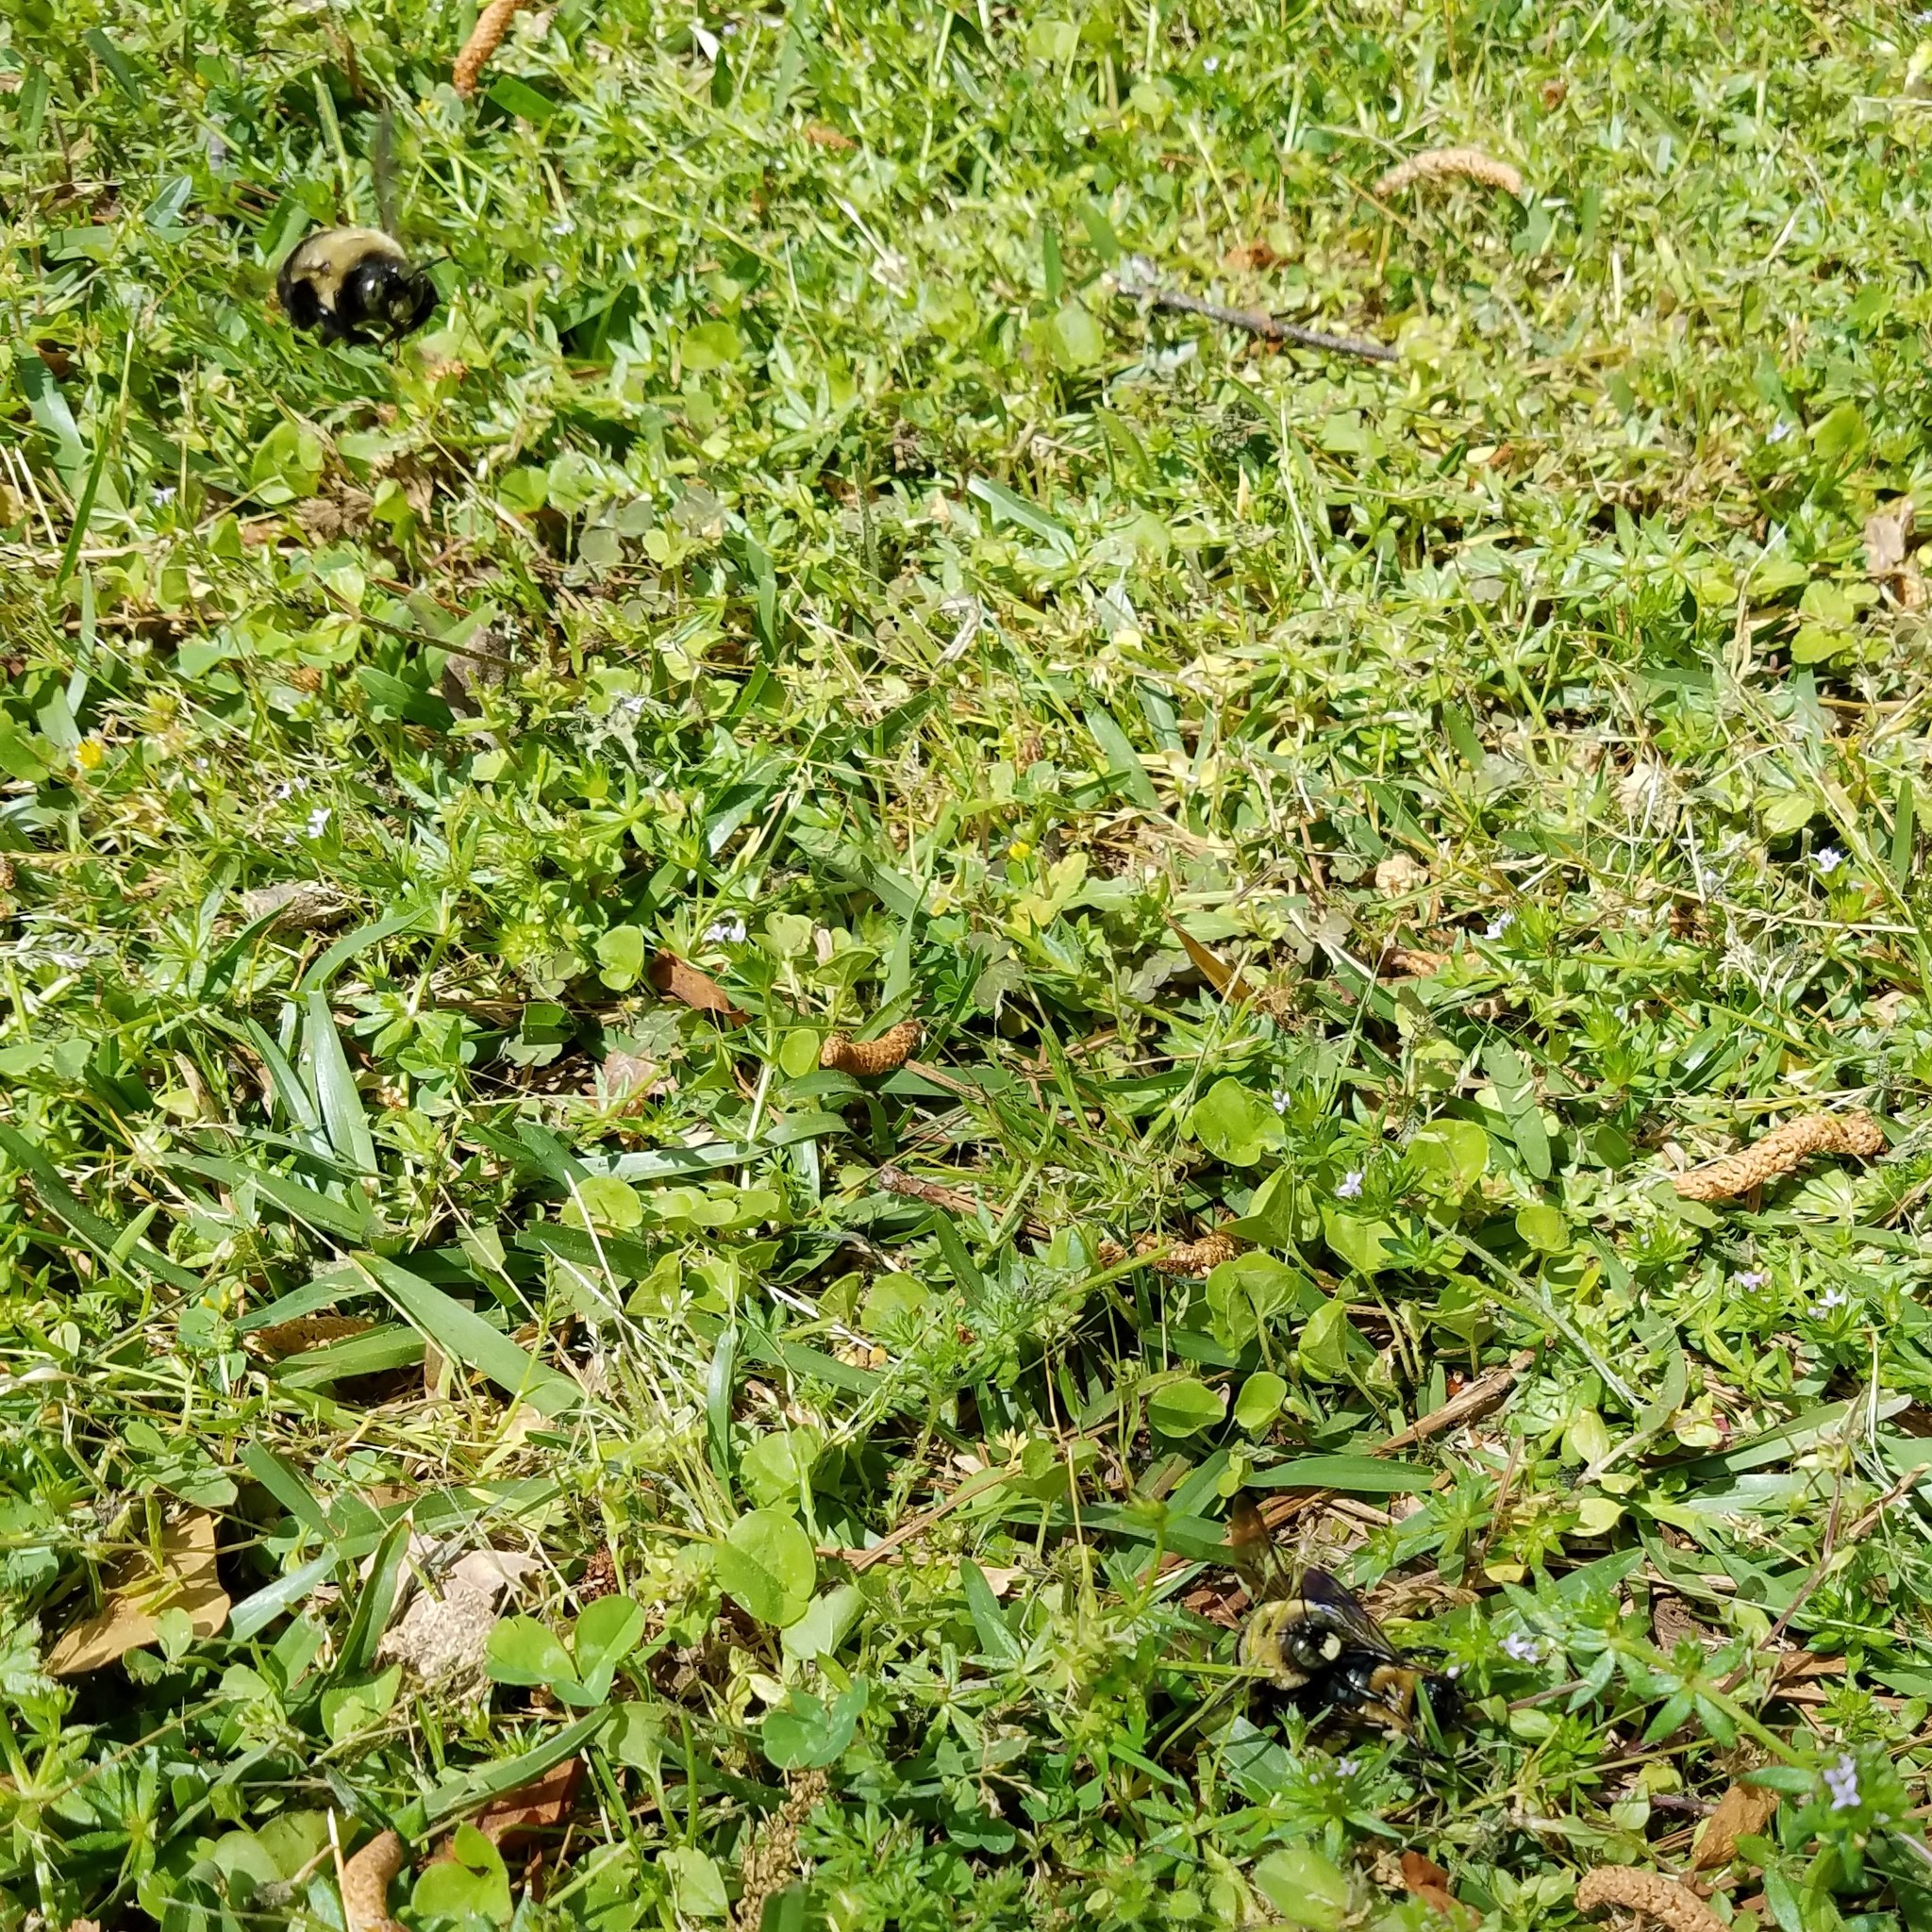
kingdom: Animalia
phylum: Arthropoda
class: Insecta
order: Hymenoptera
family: Apidae
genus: Xylocopa
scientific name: Xylocopa virginica
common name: Carpenter bee
